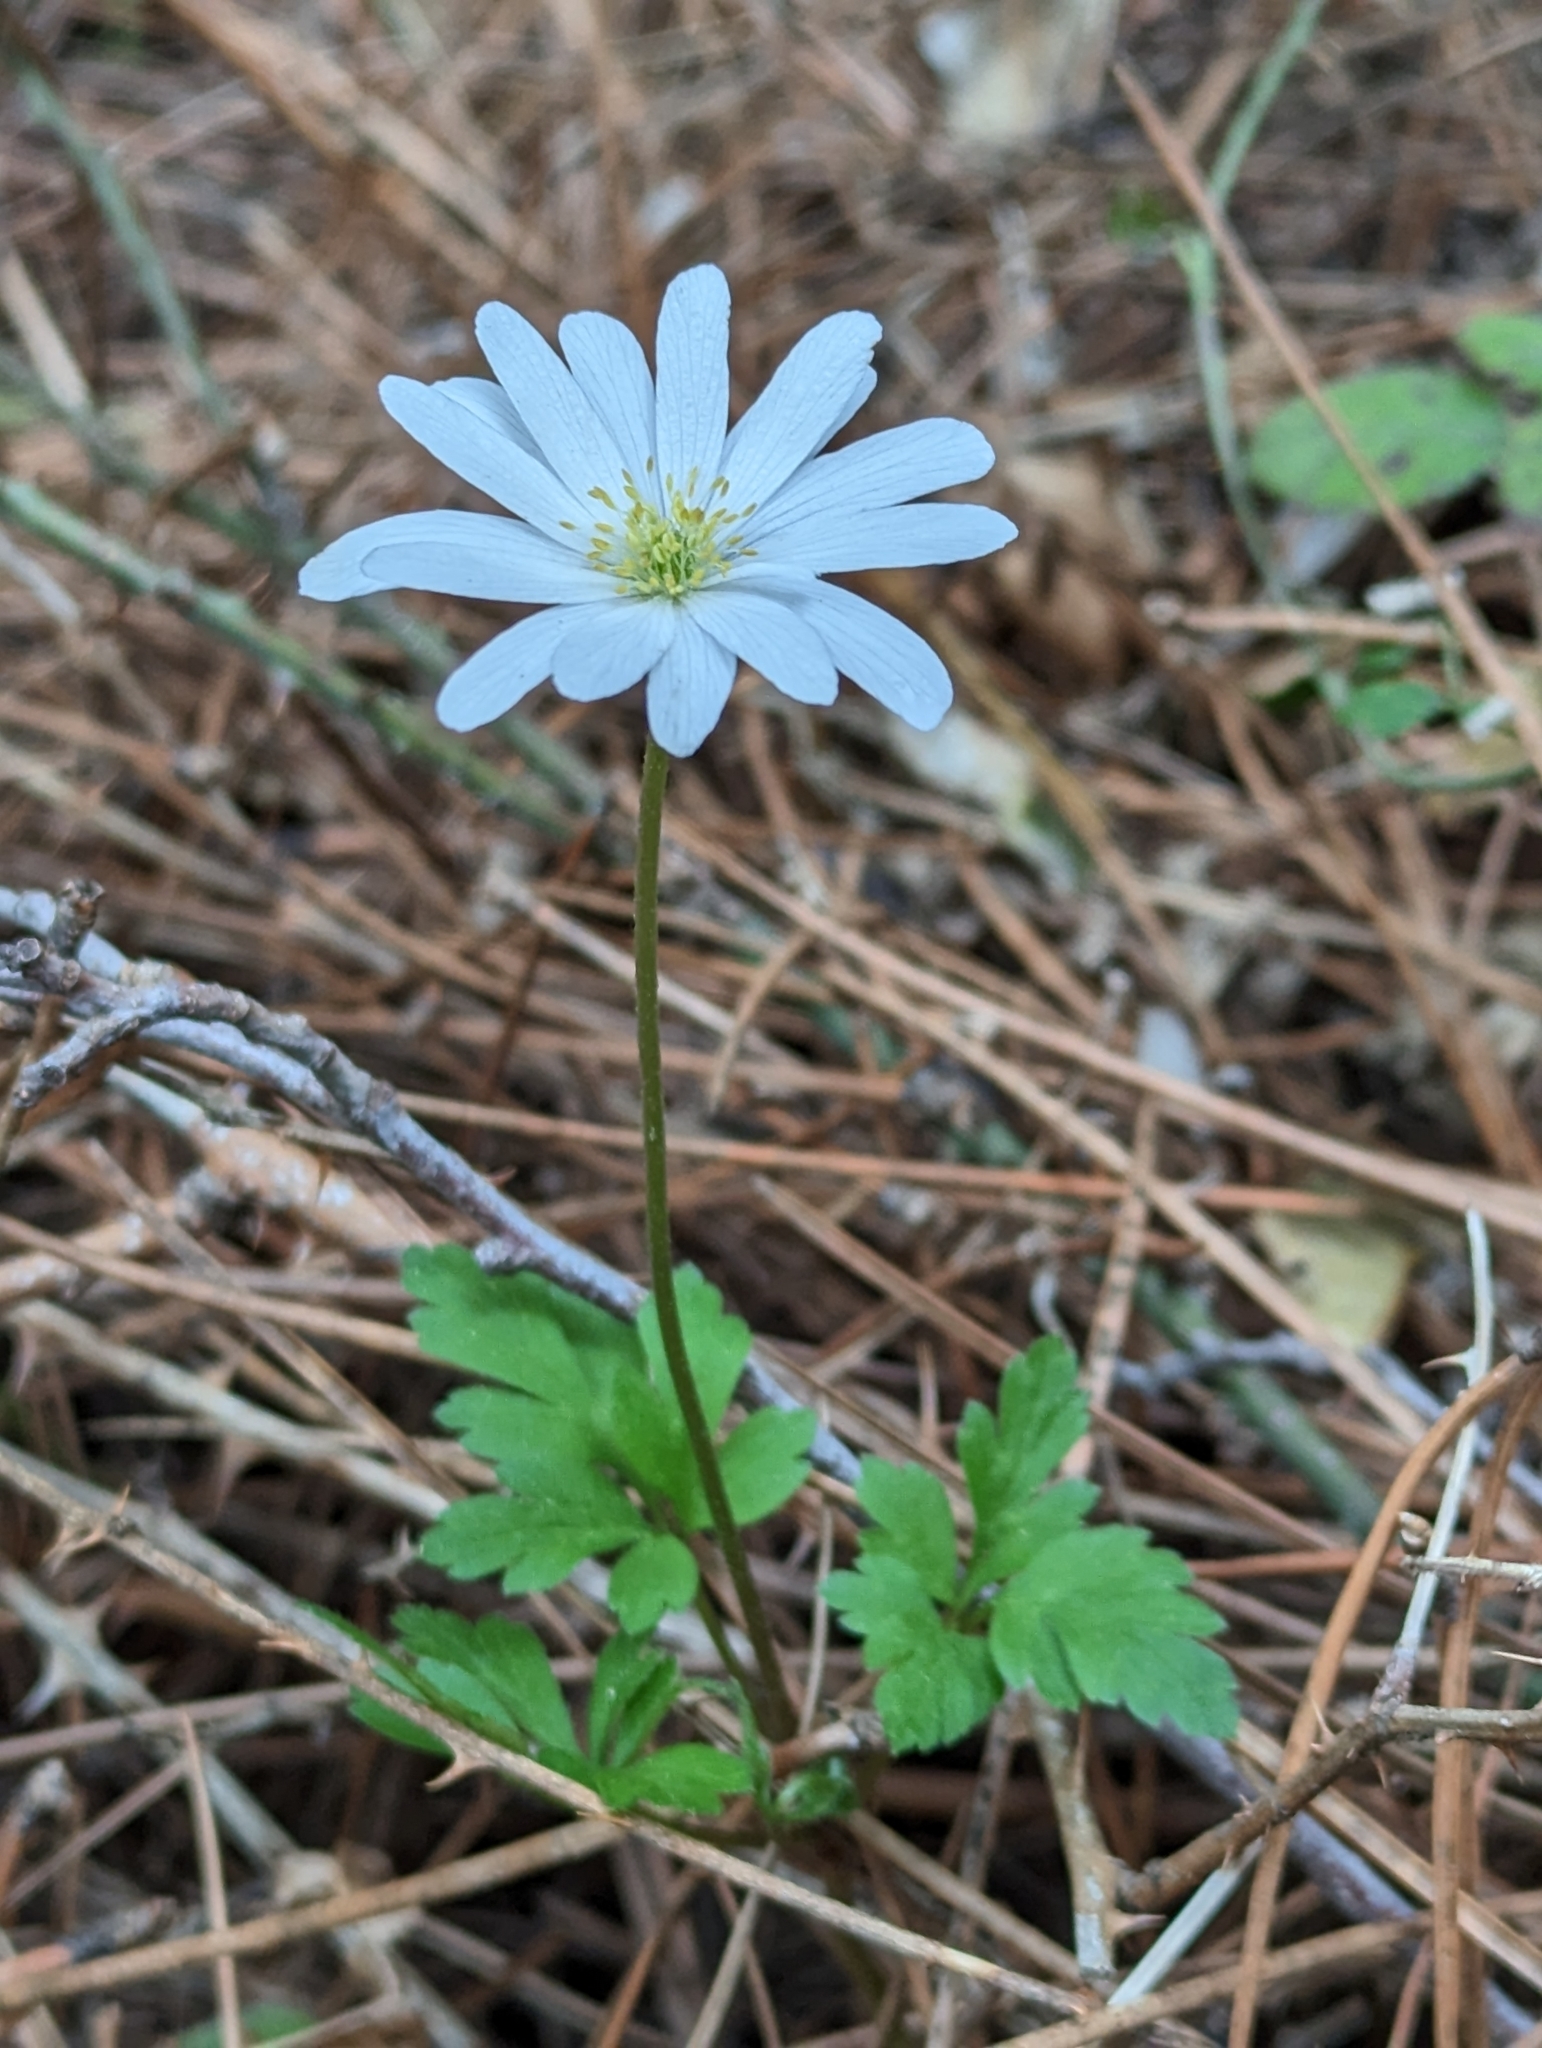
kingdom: Plantae
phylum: Tracheophyta
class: Magnoliopsida
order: Ranunculales
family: Ranunculaceae
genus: Anemone
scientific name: Anemone apennina
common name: Blue anemone
